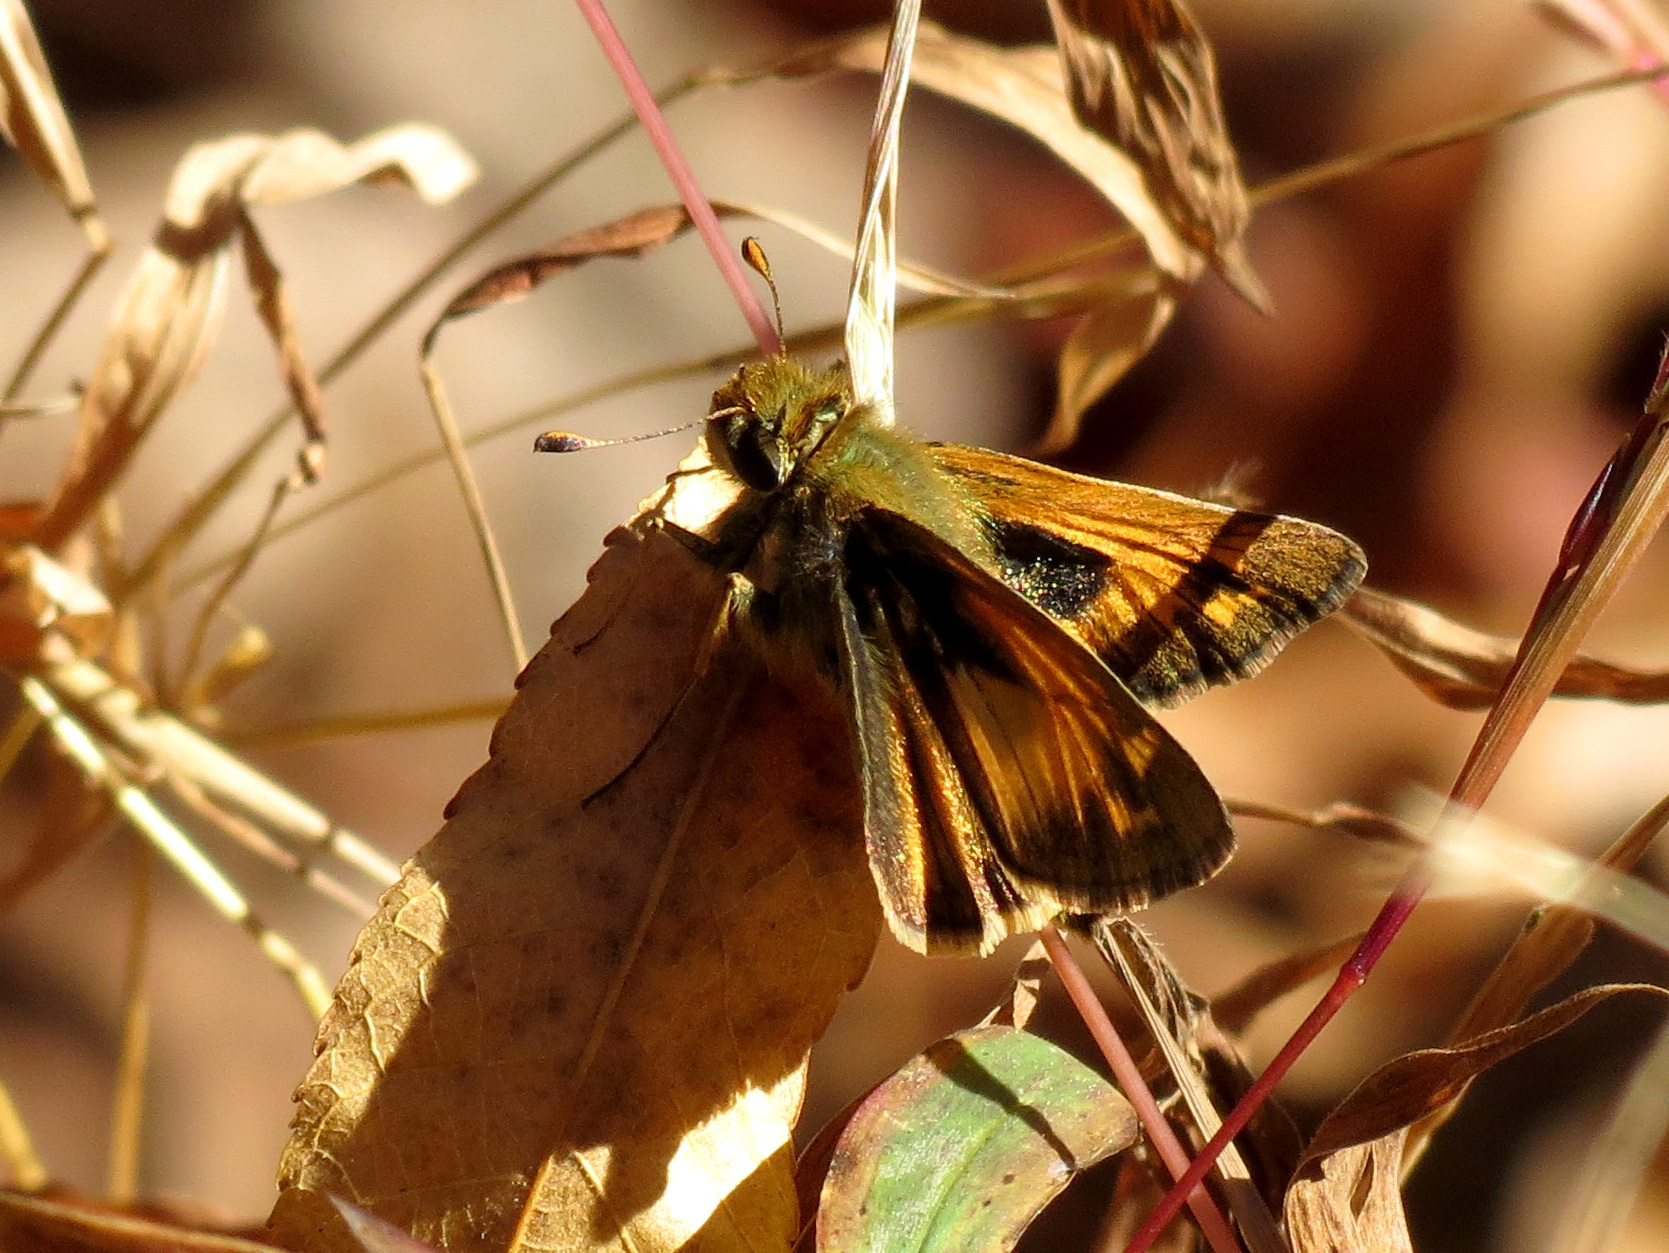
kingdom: Animalia
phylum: Arthropoda
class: Insecta
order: Lepidoptera
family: Hesperiidae
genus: Atalopedes
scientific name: Atalopedes
